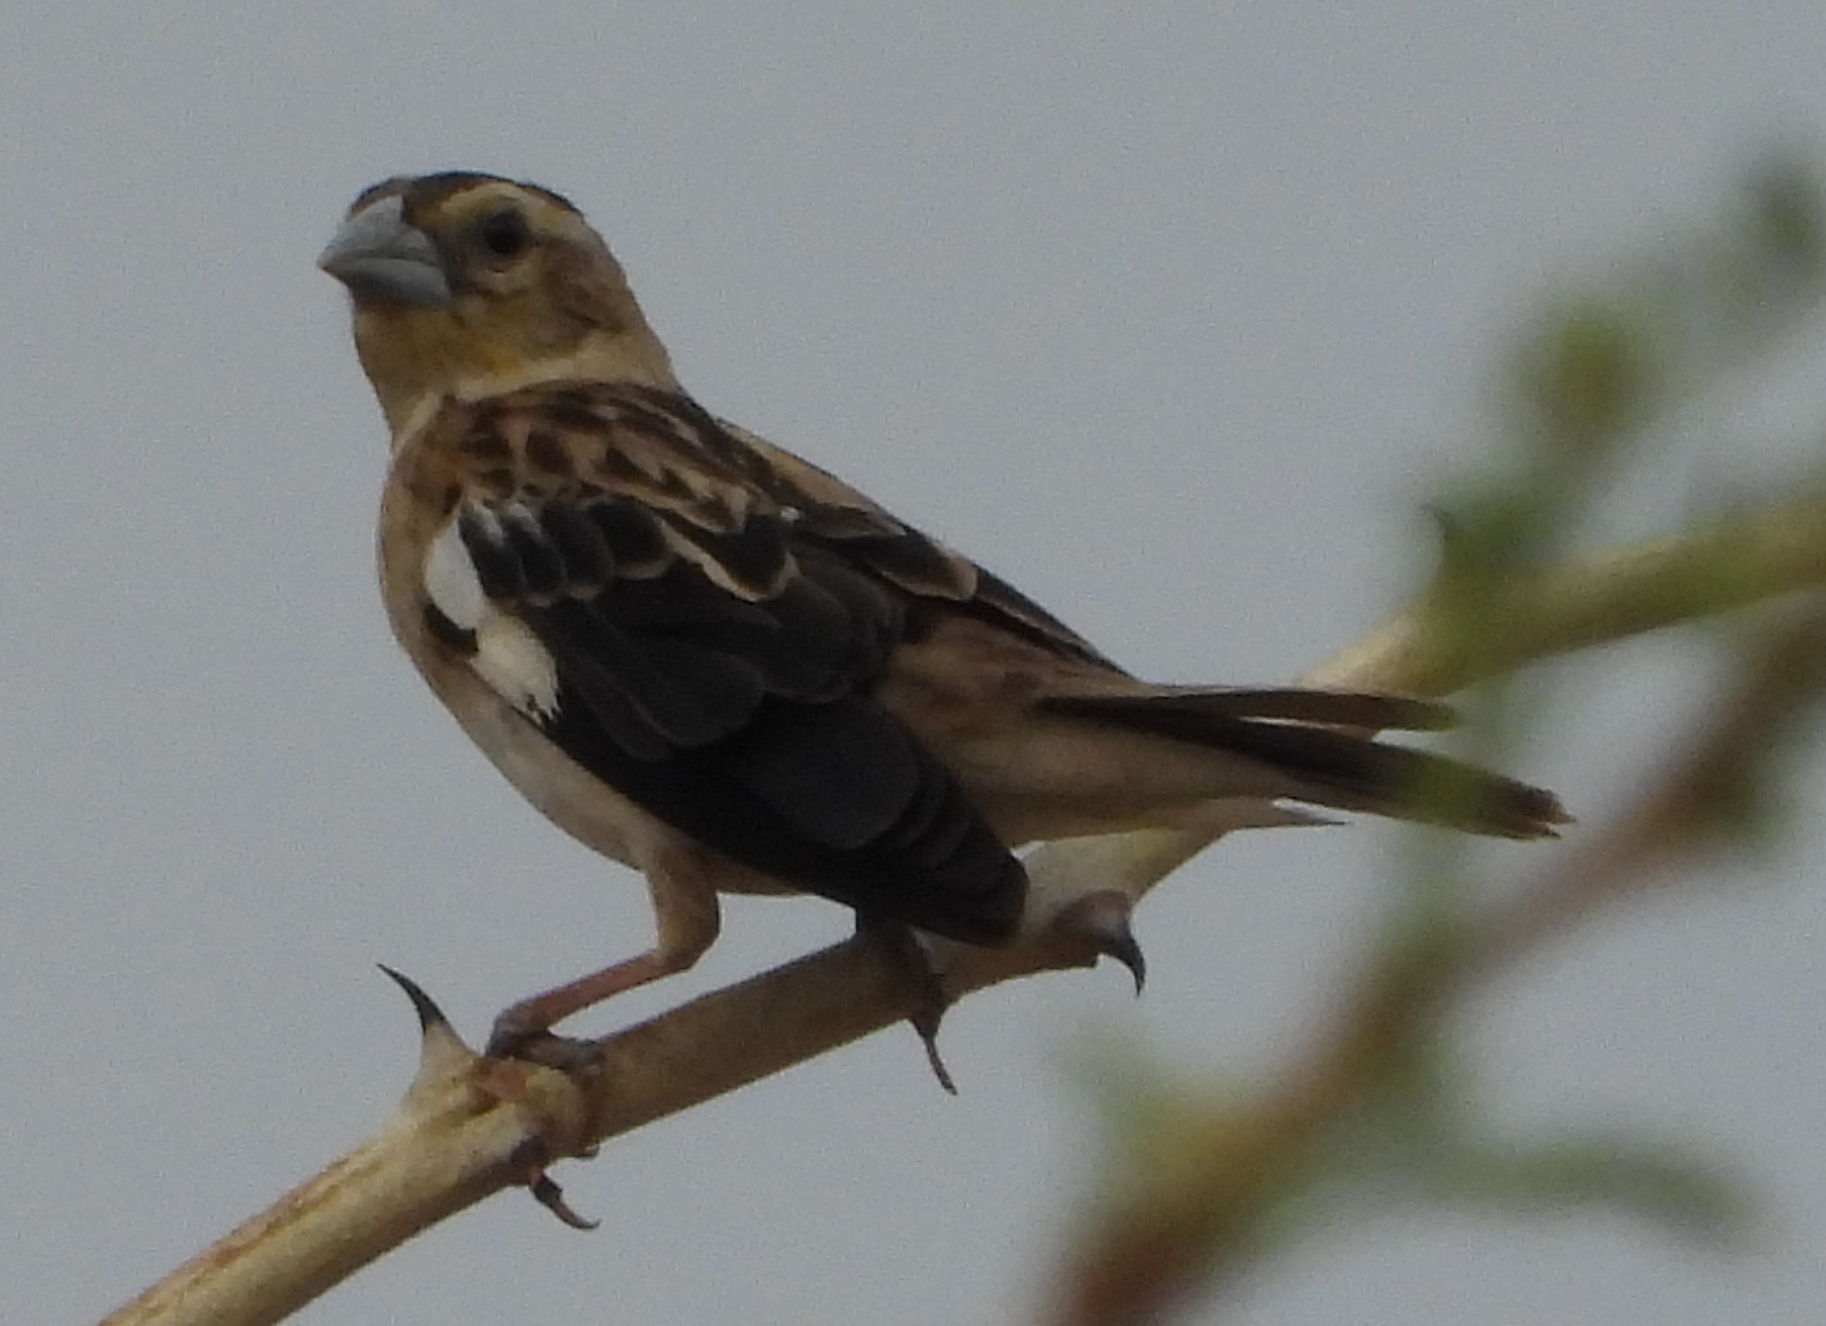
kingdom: Animalia
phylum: Chordata
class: Aves
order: Passeriformes
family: Ploceidae
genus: Euplectes
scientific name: Euplectes albonotatus
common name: White-winged widowbird
